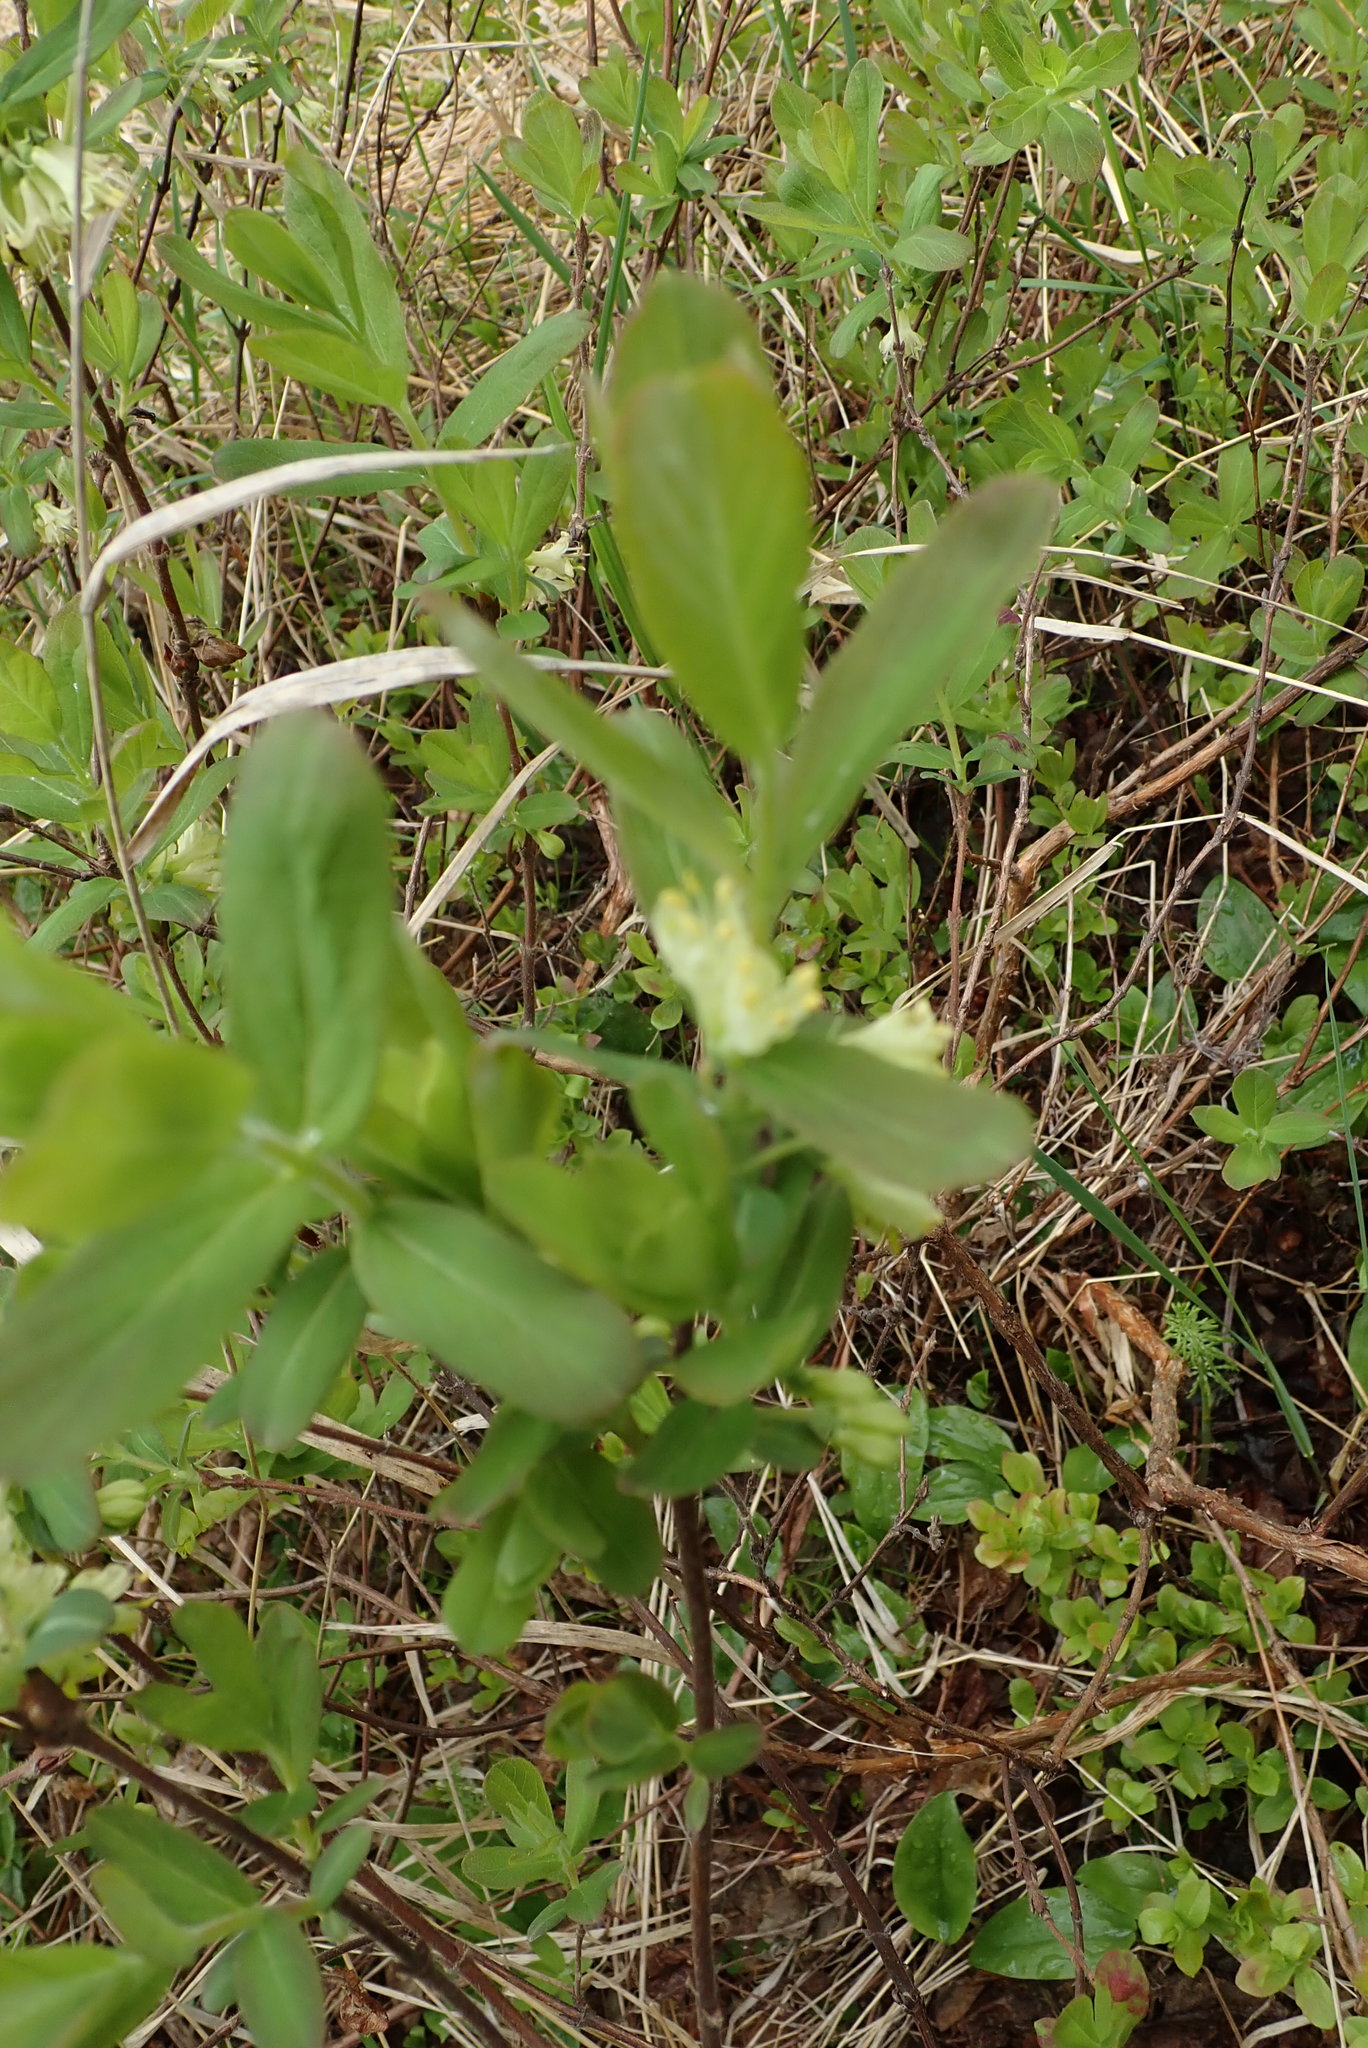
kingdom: Plantae
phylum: Tracheophyta
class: Magnoliopsida
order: Dipsacales
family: Caprifoliaceae
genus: Lonicera
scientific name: Lonicera villosa
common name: Mountain fly-honeysuckle
